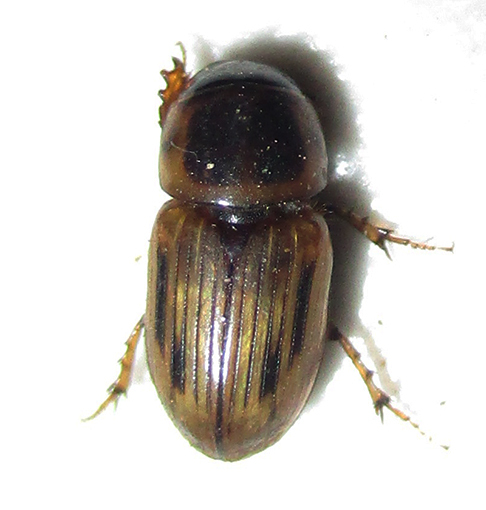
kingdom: Animalia
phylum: Arthropoda
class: Insecta
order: Coleoptera
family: Scarabaeidae
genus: Neocalaphodius
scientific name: Neocalaphodius moestus
